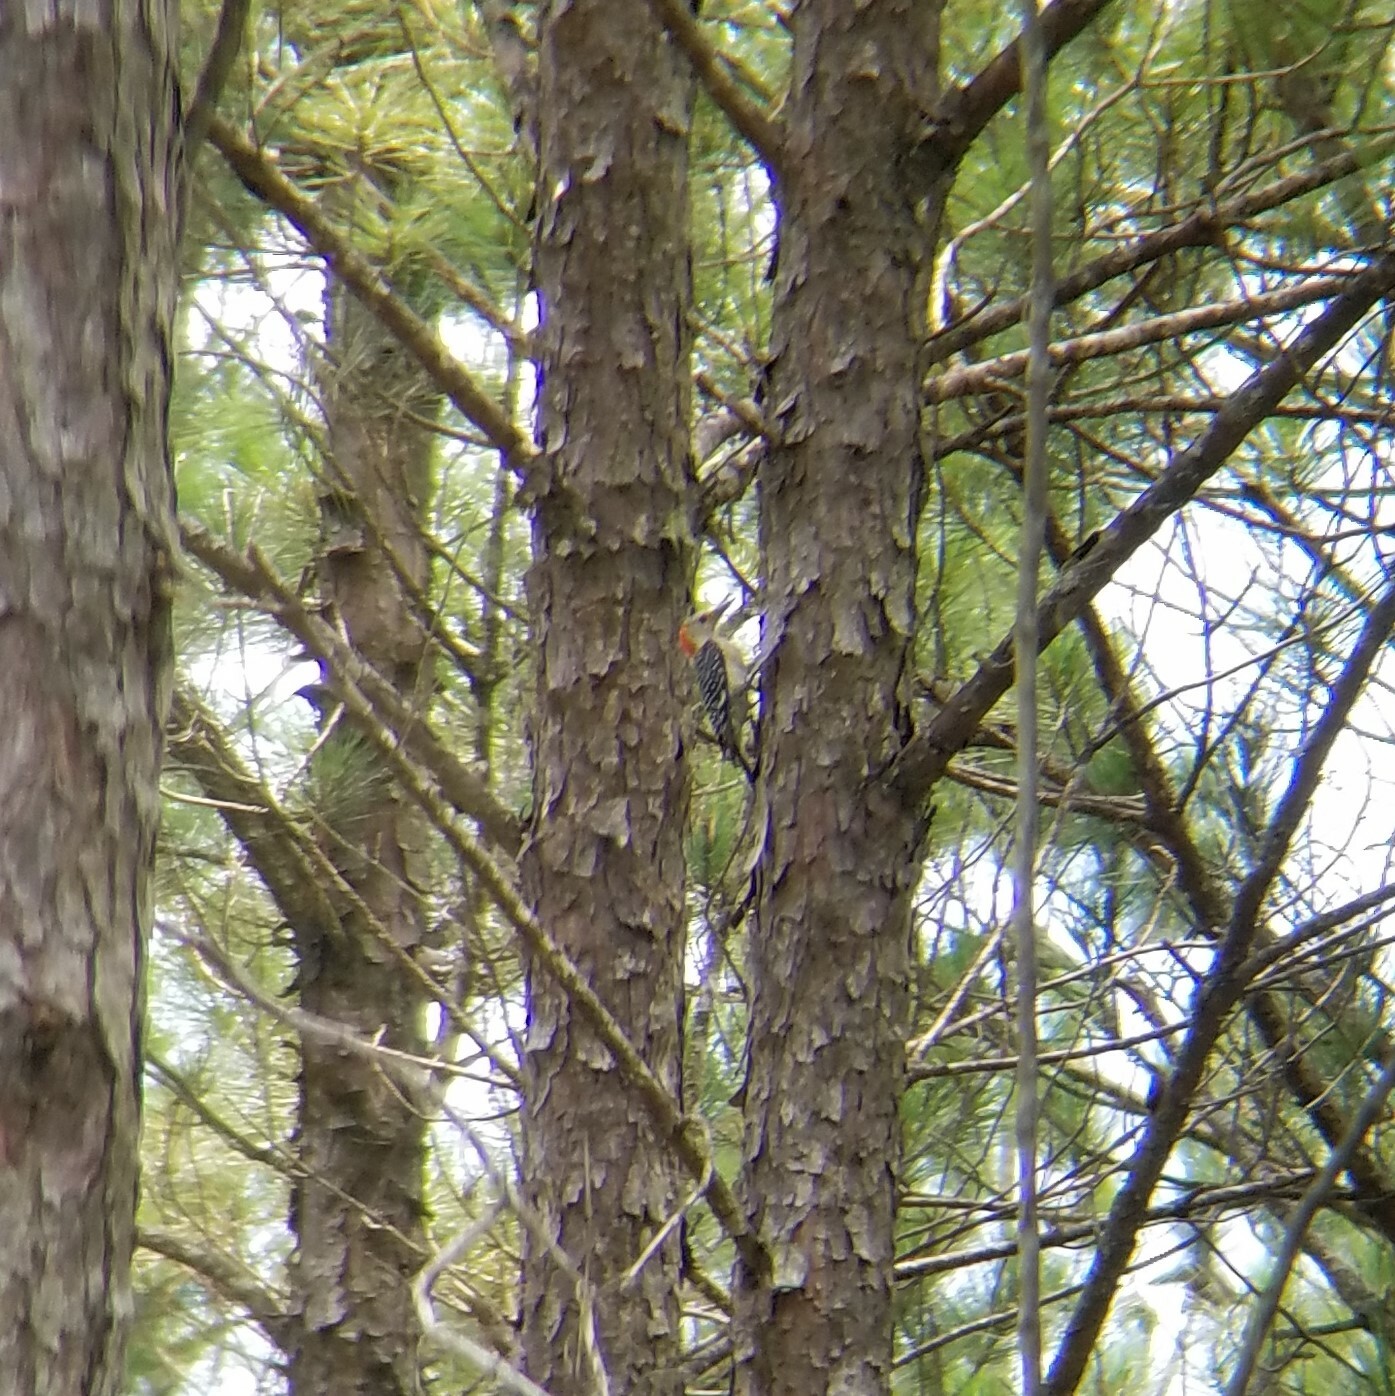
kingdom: Animalia
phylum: Chordata
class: Aves
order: Piciformes
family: Picidae
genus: Melanerpes
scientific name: Melanerpes carolinus
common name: Red-bellied woodpecker
